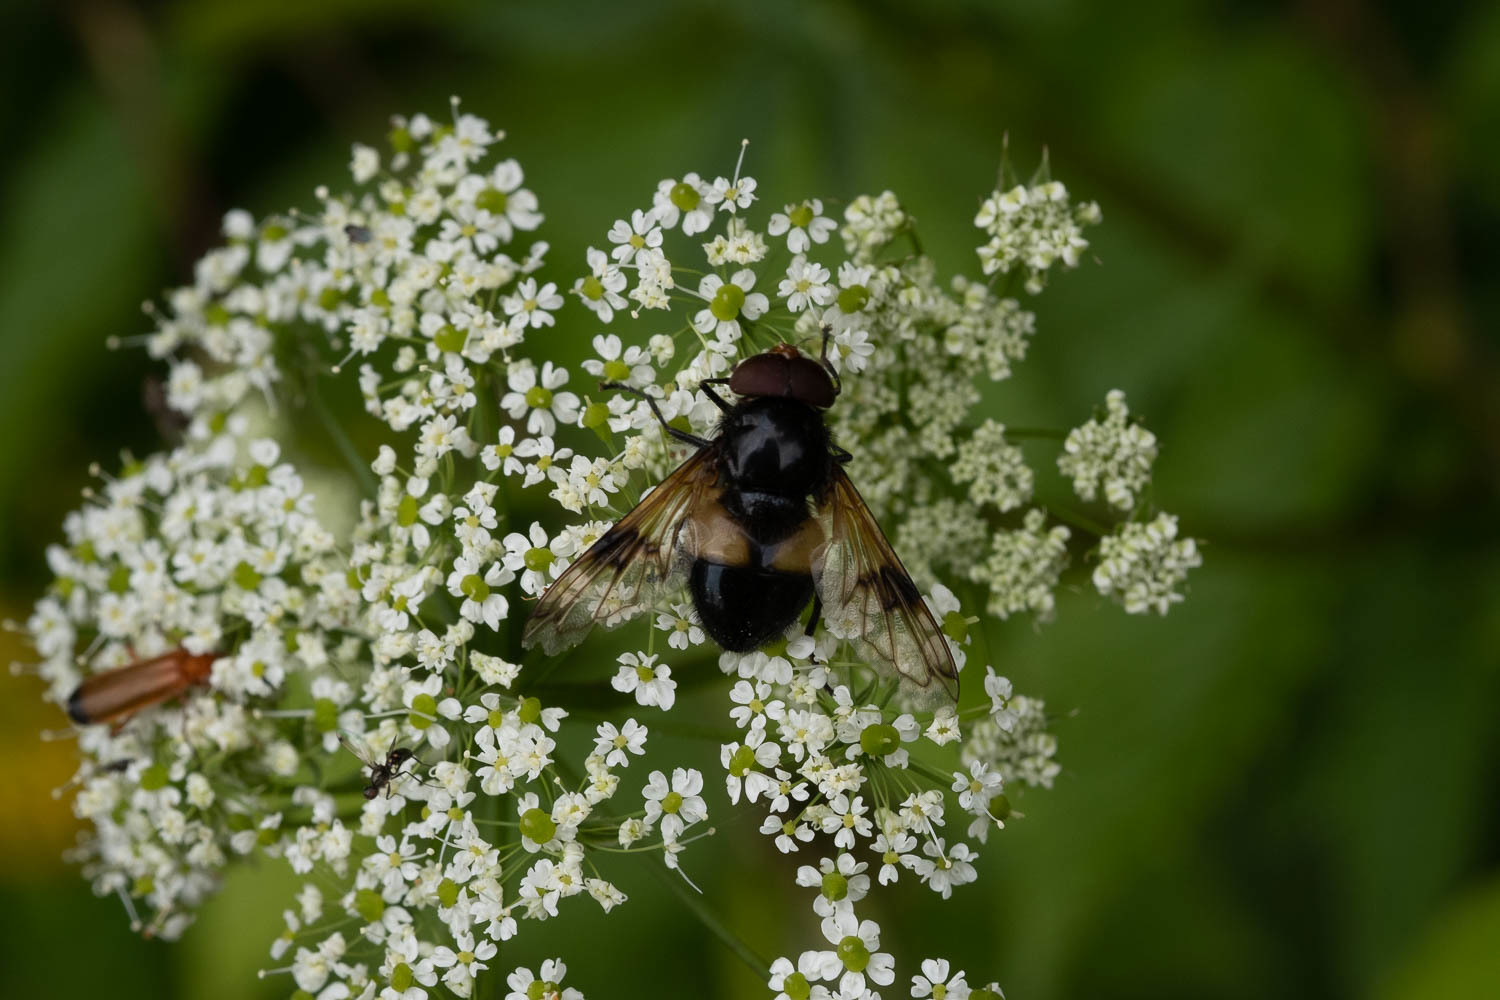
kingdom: Animalia
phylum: Arthropoda
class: Insecta
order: Diptera
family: Syrphidae
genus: Volucella
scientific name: Volucella pellucens
